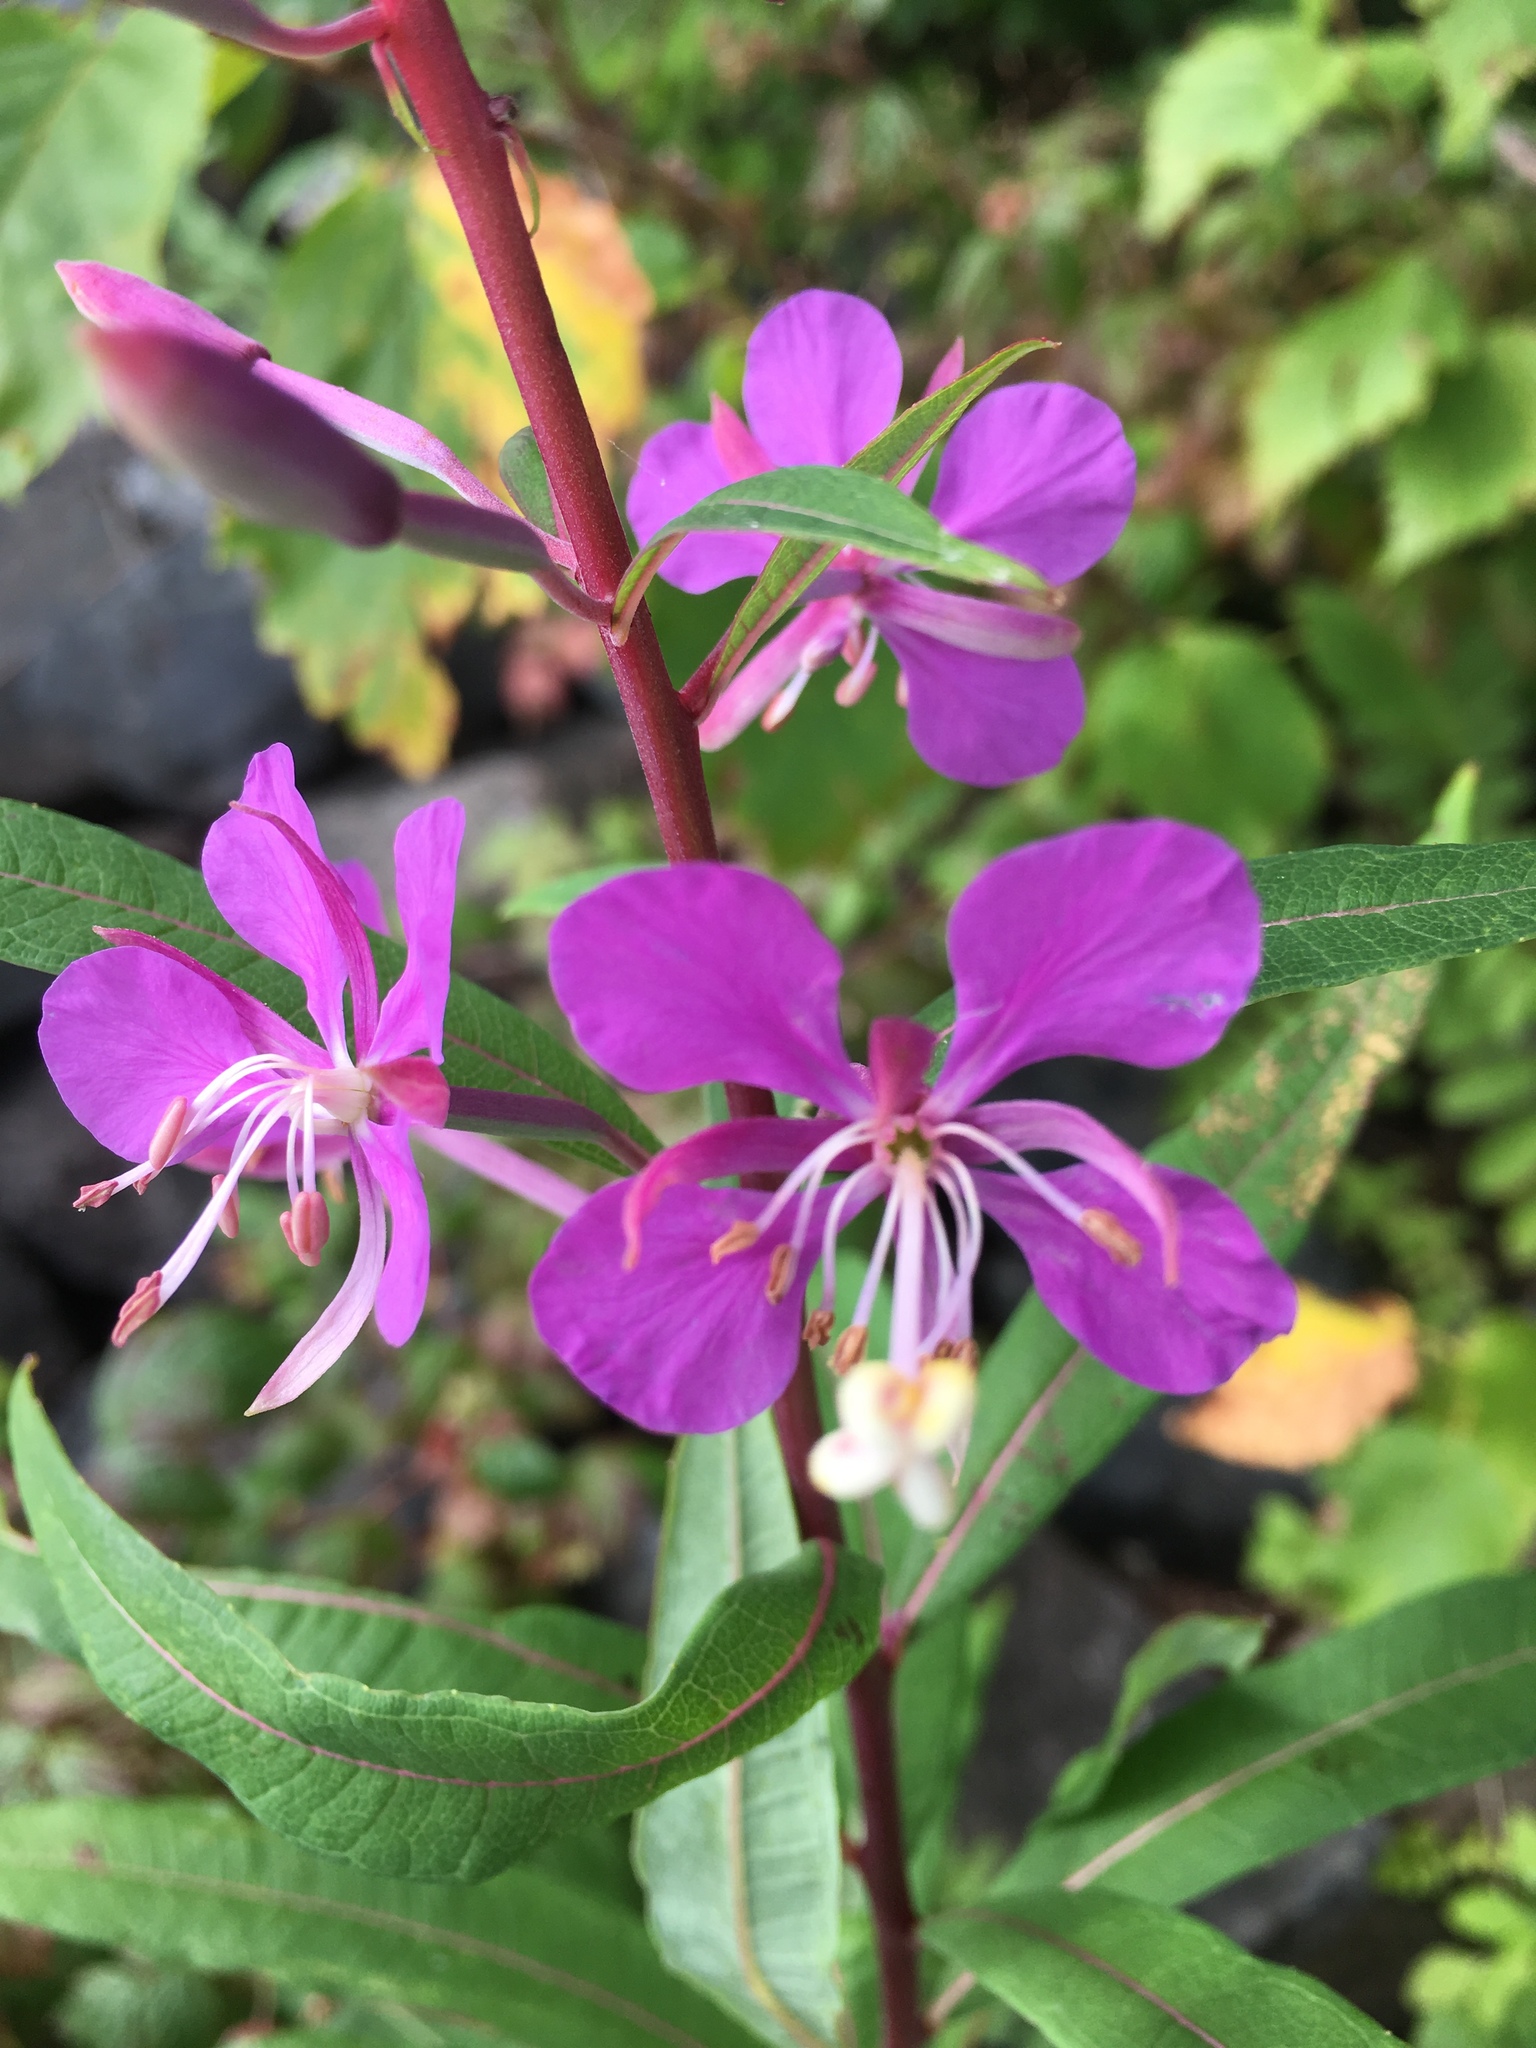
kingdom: Plantae
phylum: Tracheophyta
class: Magnoliopsida
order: Myrtales
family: Onagraceae
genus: Chamaenerion
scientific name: Chamaenerion angustifolium
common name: Fireweed
